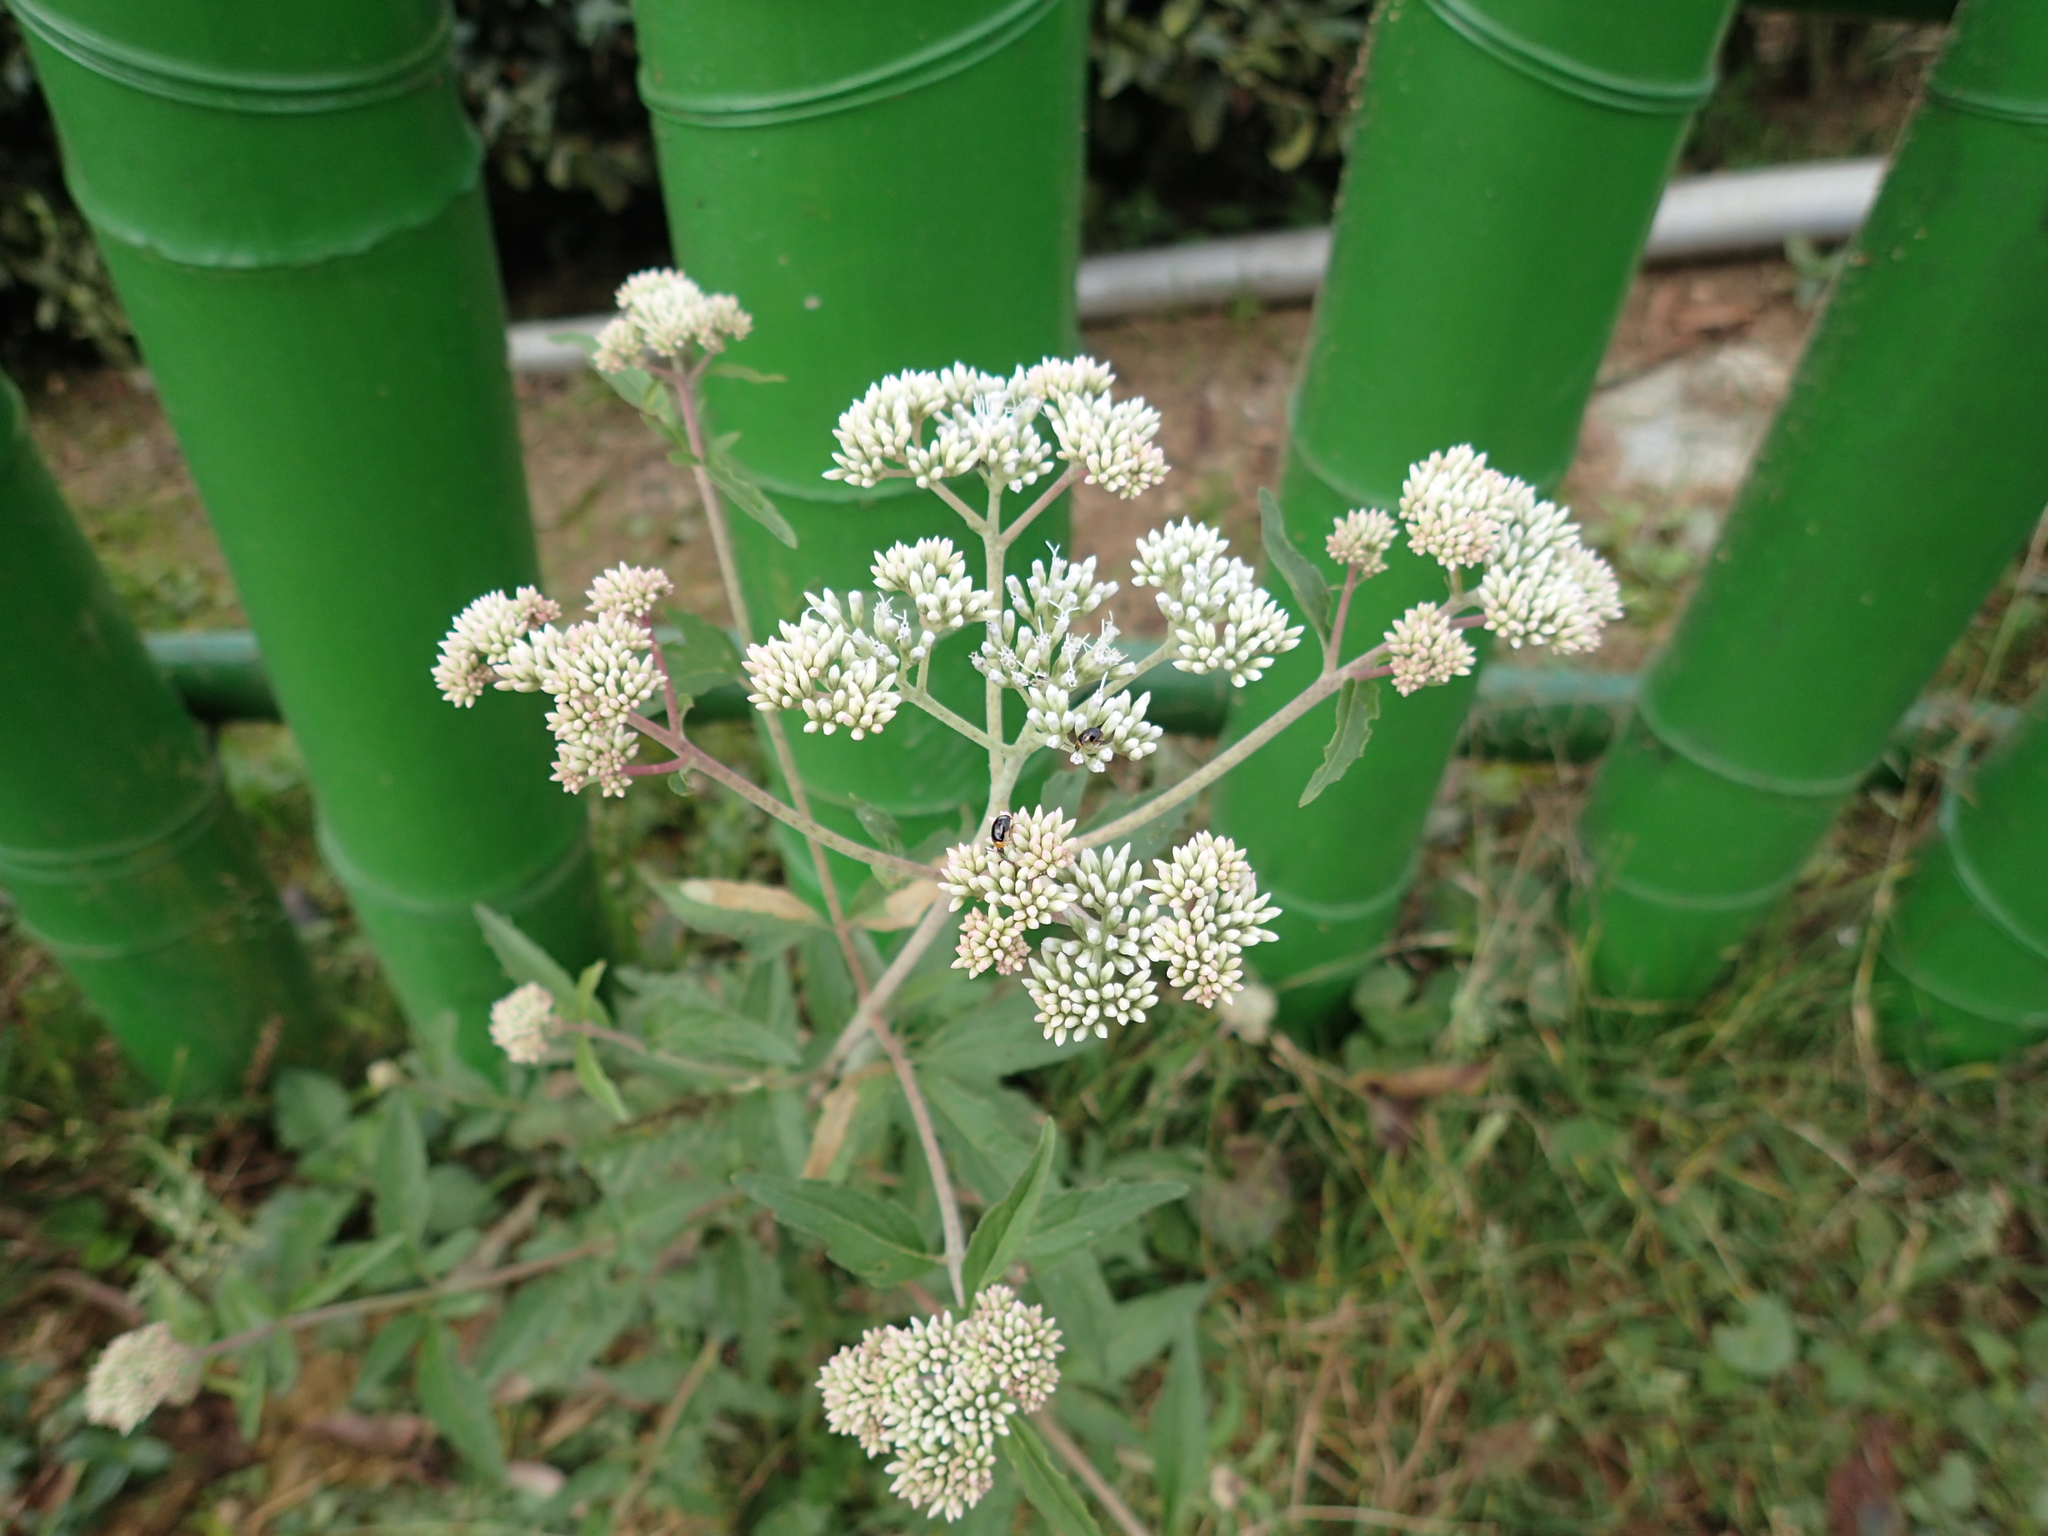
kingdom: Plantae
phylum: Tracheophyta
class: Magnoliopsida
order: Asterales
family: Asteraceae
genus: Eupatorium
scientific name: Eupatorium formosanum
